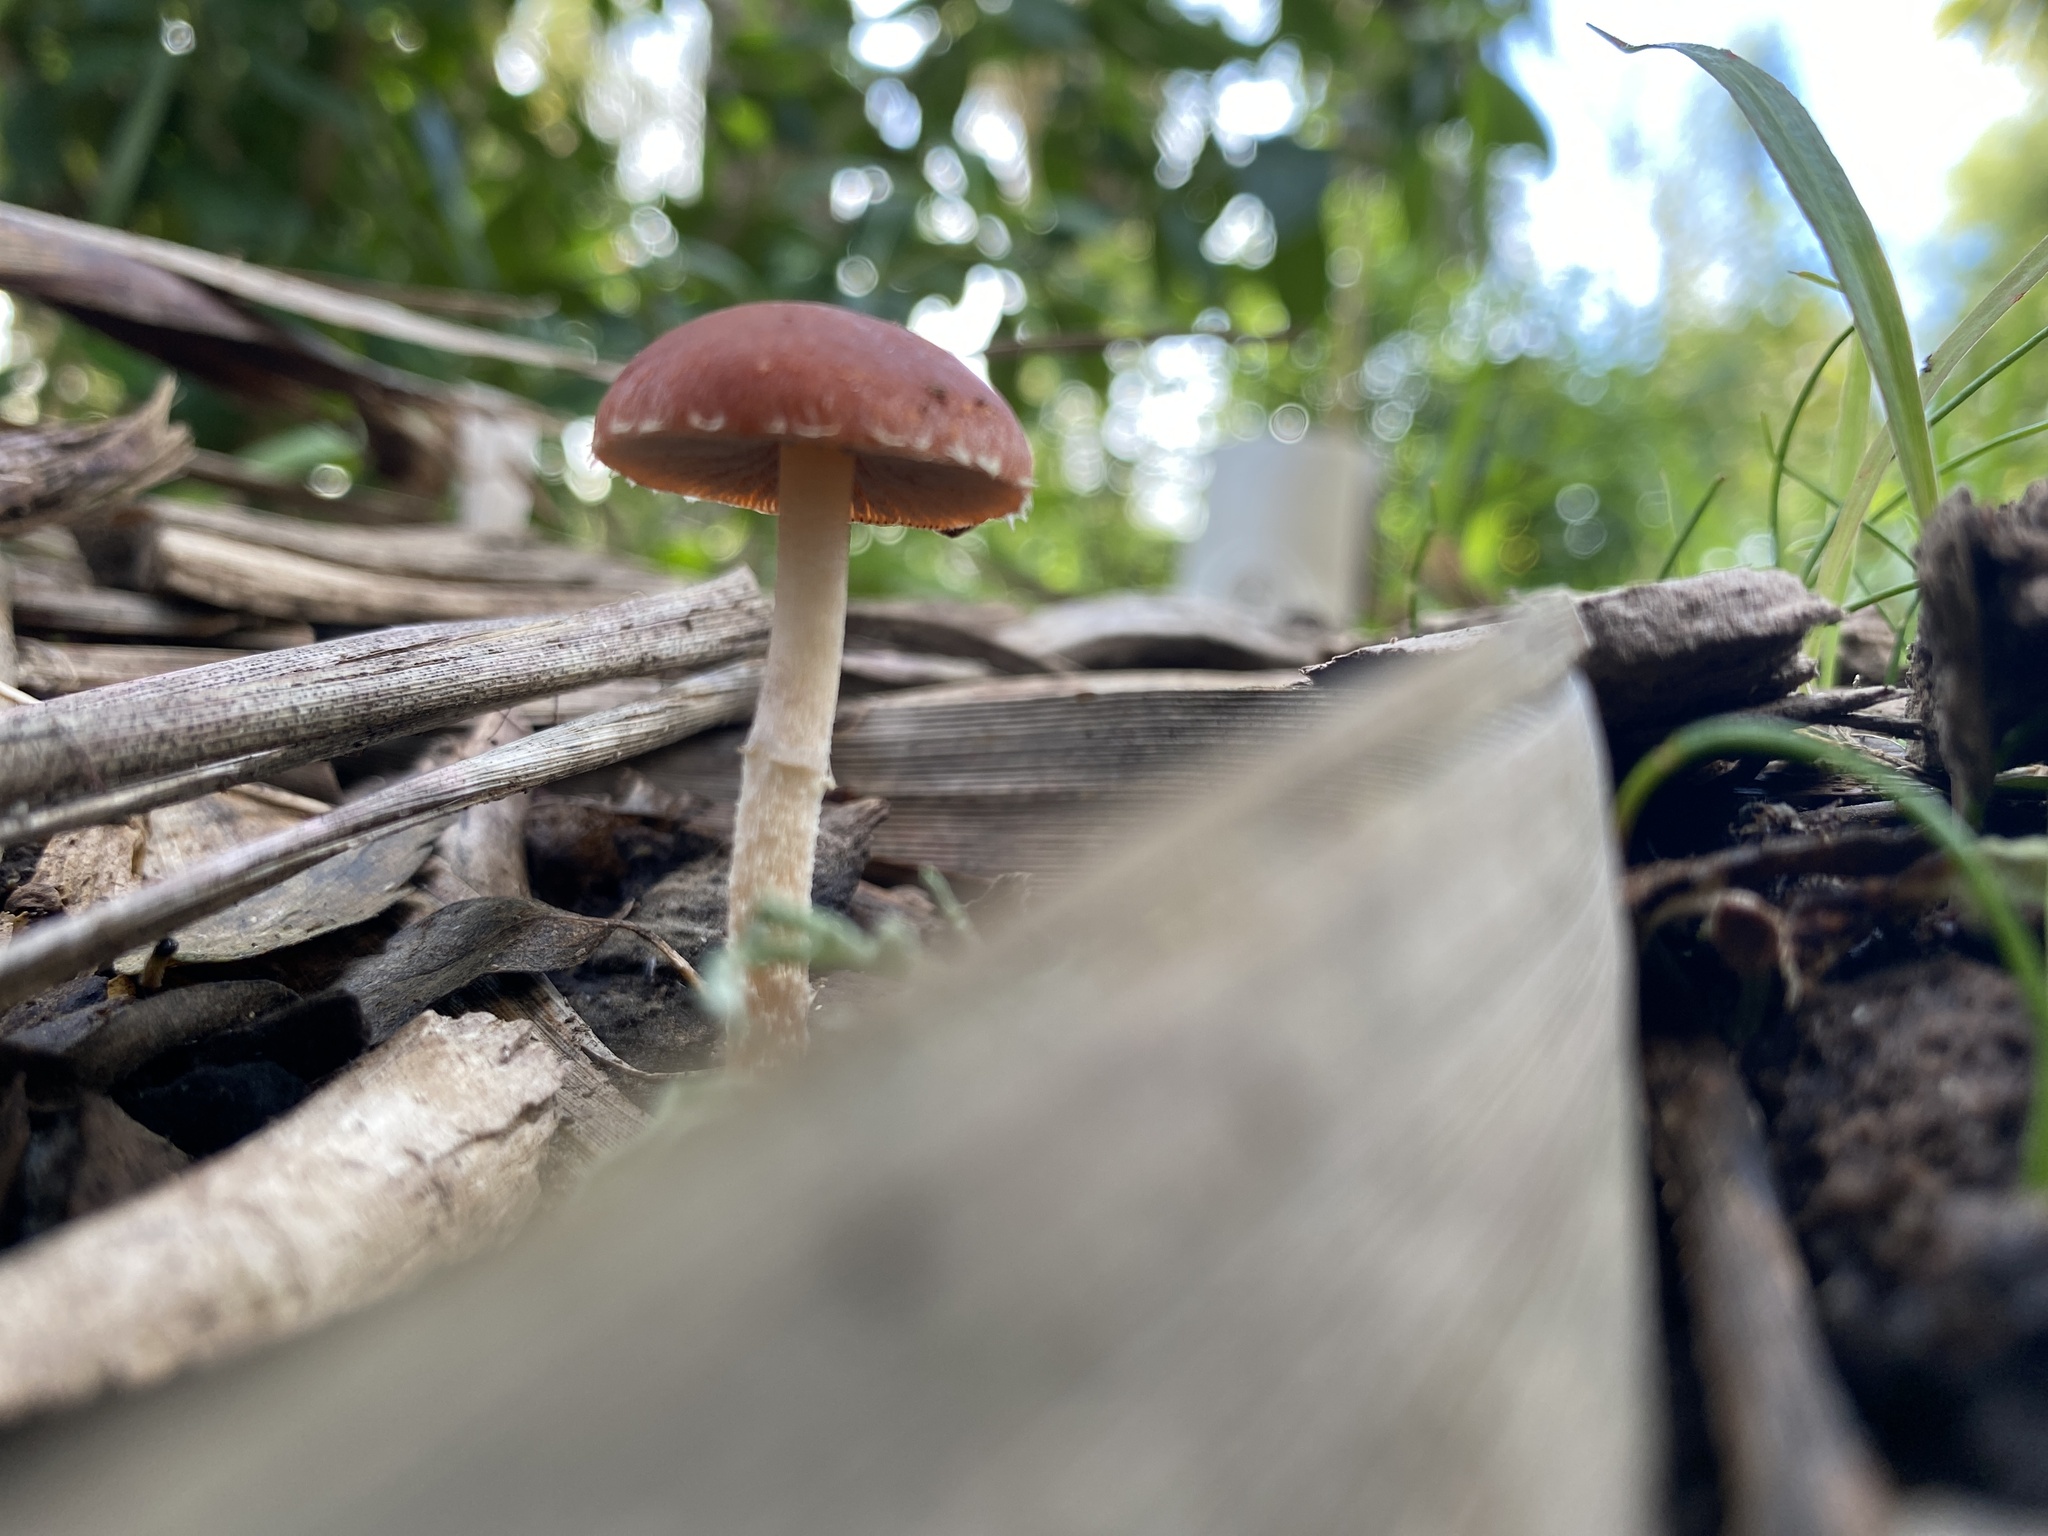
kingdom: Fungi
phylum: Basidiomycota
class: Agaricomycetes
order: Agaricales
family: Strophariaceae
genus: Leratiomyces
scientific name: Leratiomyces ceres
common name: Redlead roundhead
